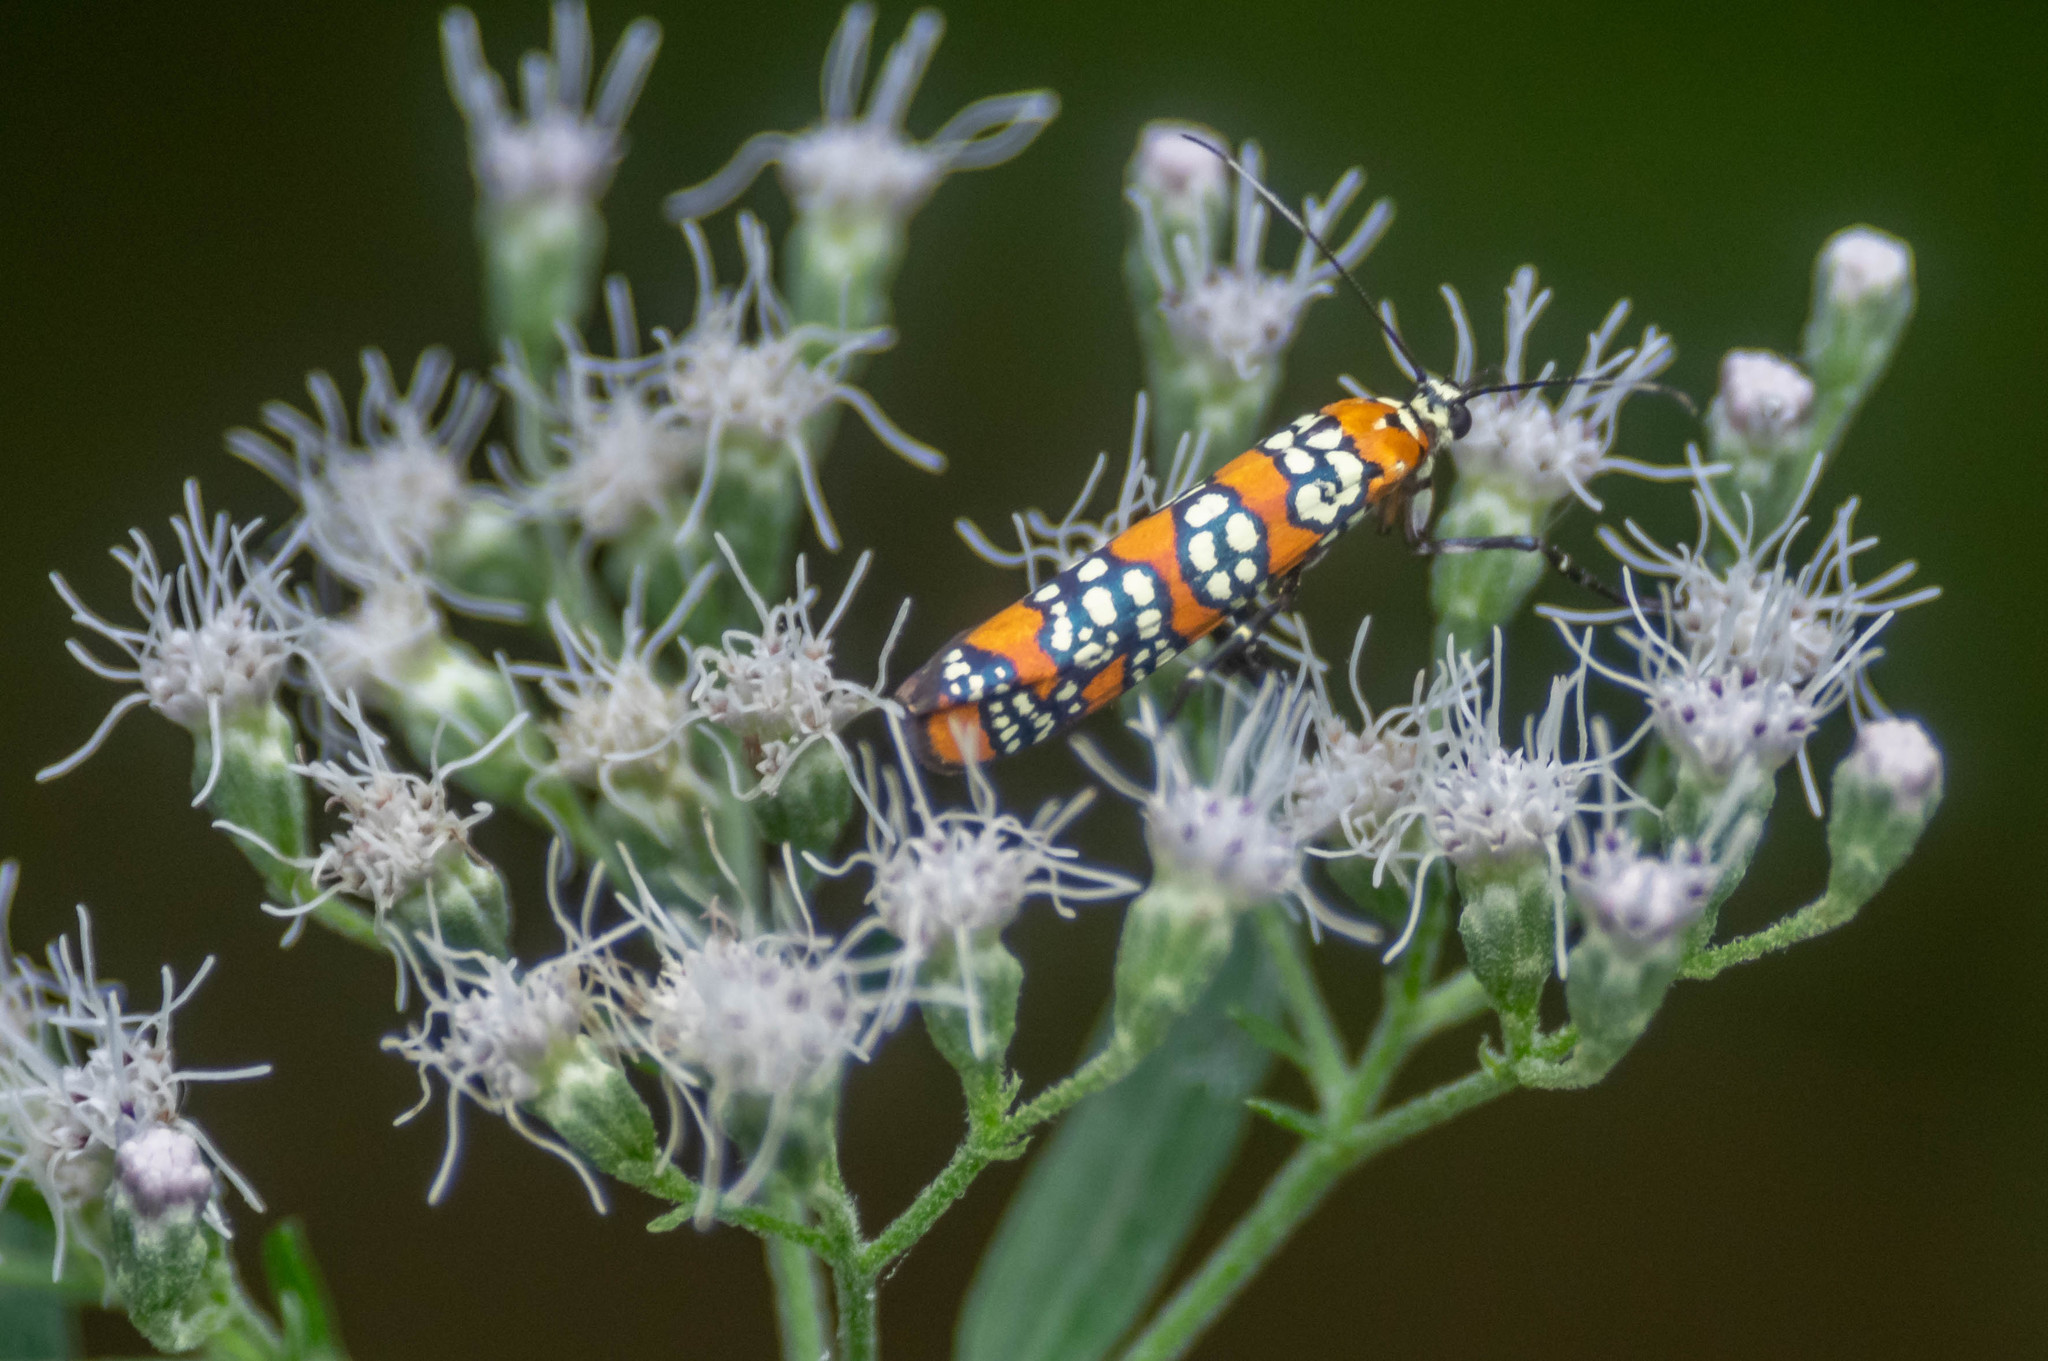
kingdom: Animalia
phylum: Arthropoda
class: Insecta
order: Lepidoptera
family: Attevidae
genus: Atteva
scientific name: Atteva punctella
